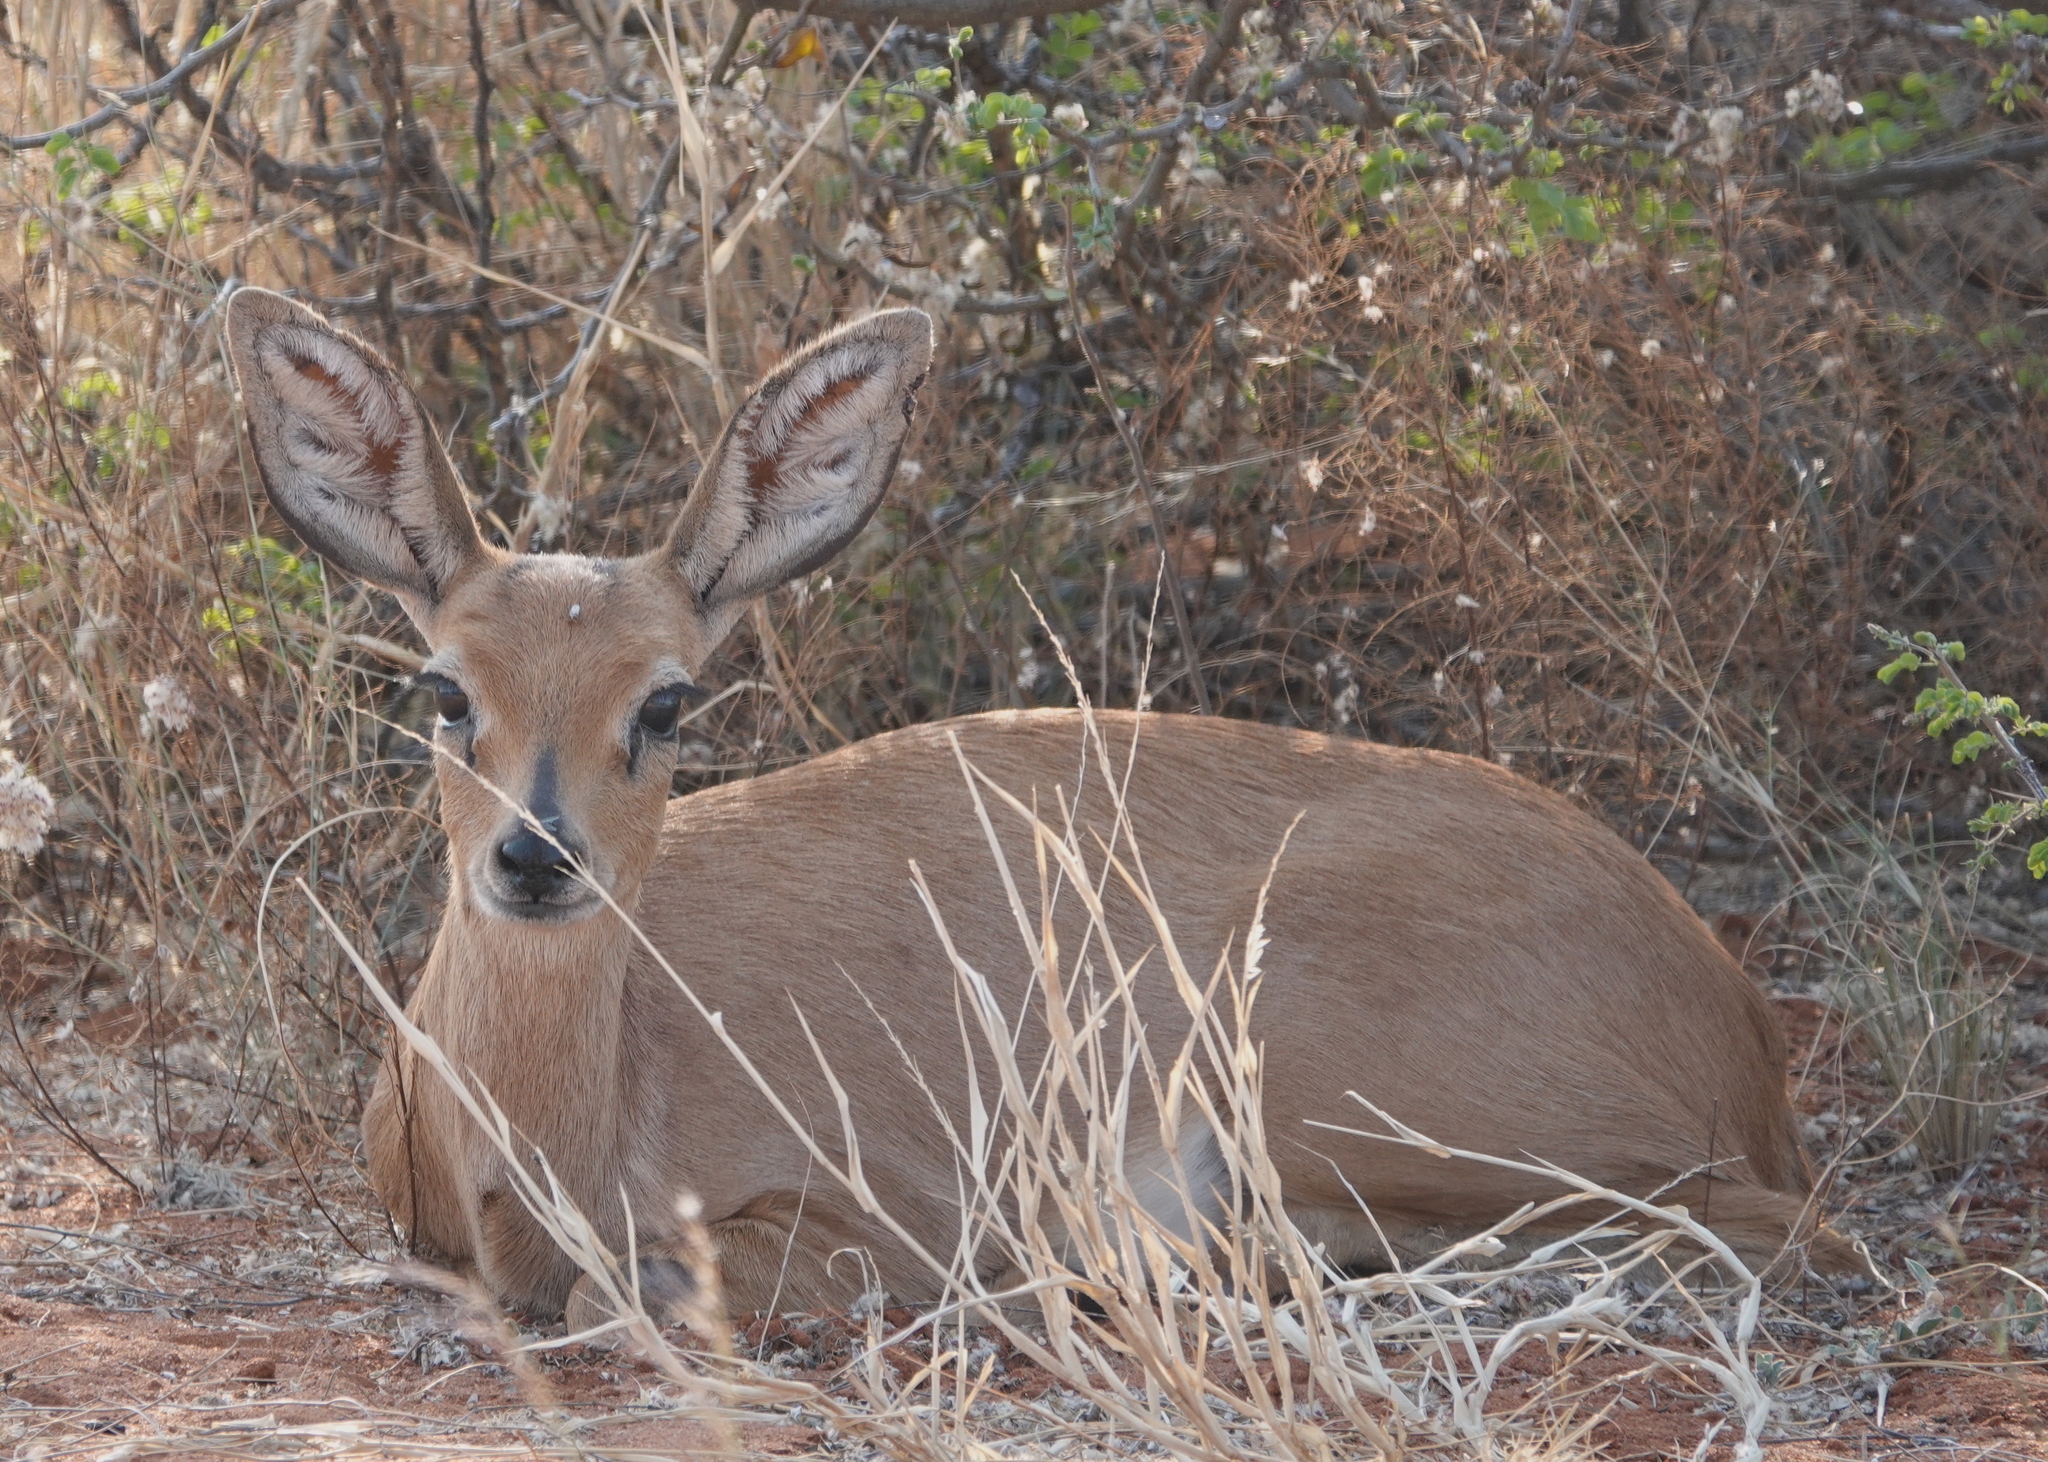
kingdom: Animalia
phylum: Chordata
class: Mammalia
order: Artiodactyla
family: Bovidae
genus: Raphicerus
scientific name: Raphicerus campestris
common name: Steenbok
